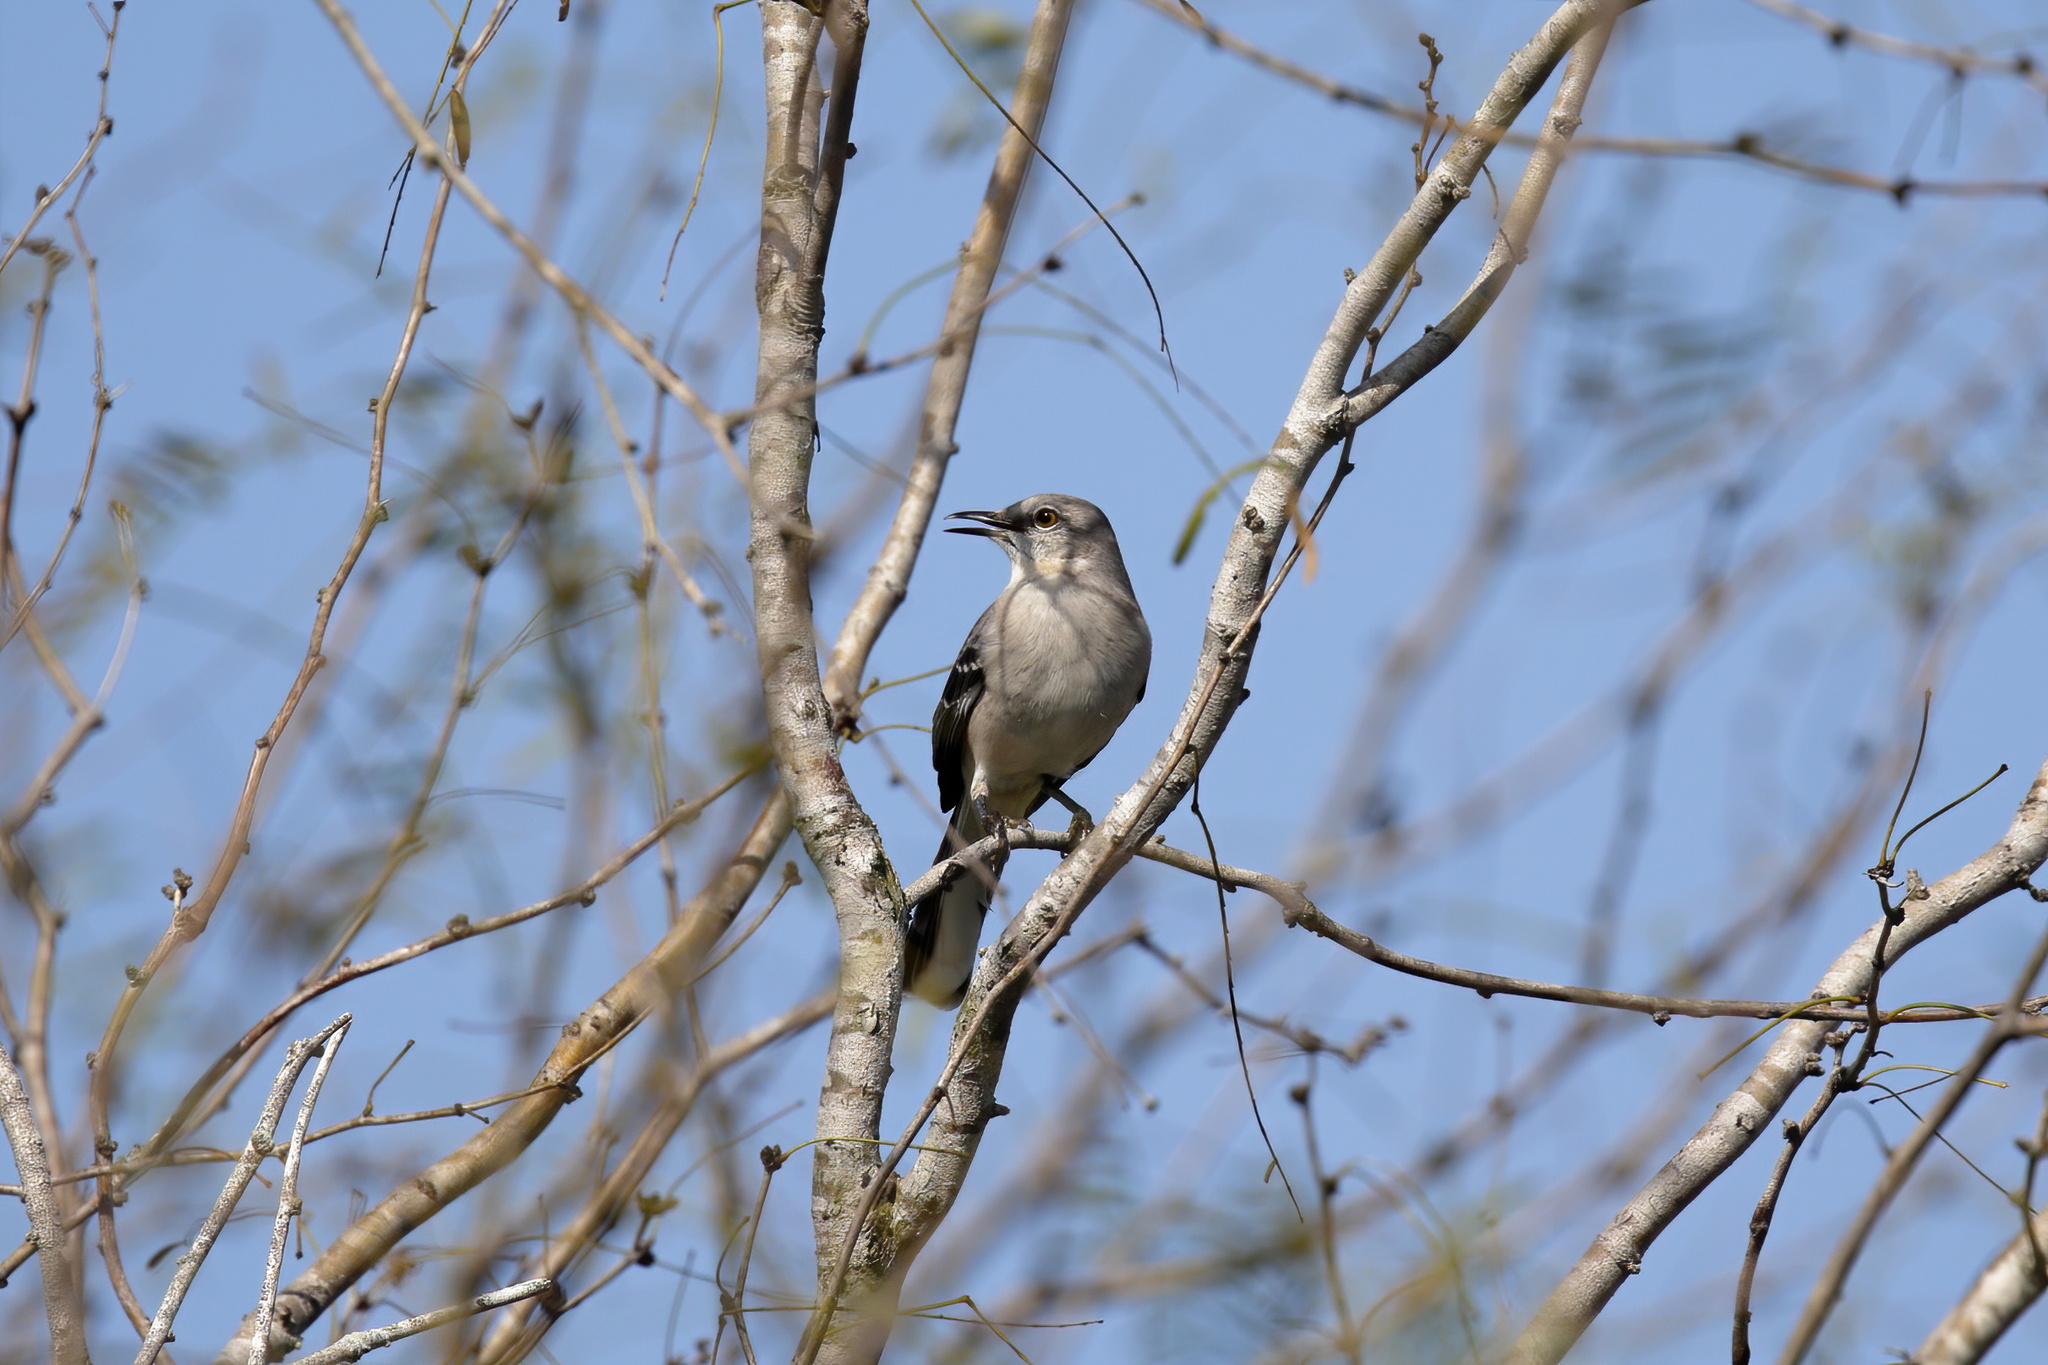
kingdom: Animalia
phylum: Chordata
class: Aves
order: Passeriformes
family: Mimidae
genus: Mimus
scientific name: Mimus polyglottos
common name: Northern mockingbird
